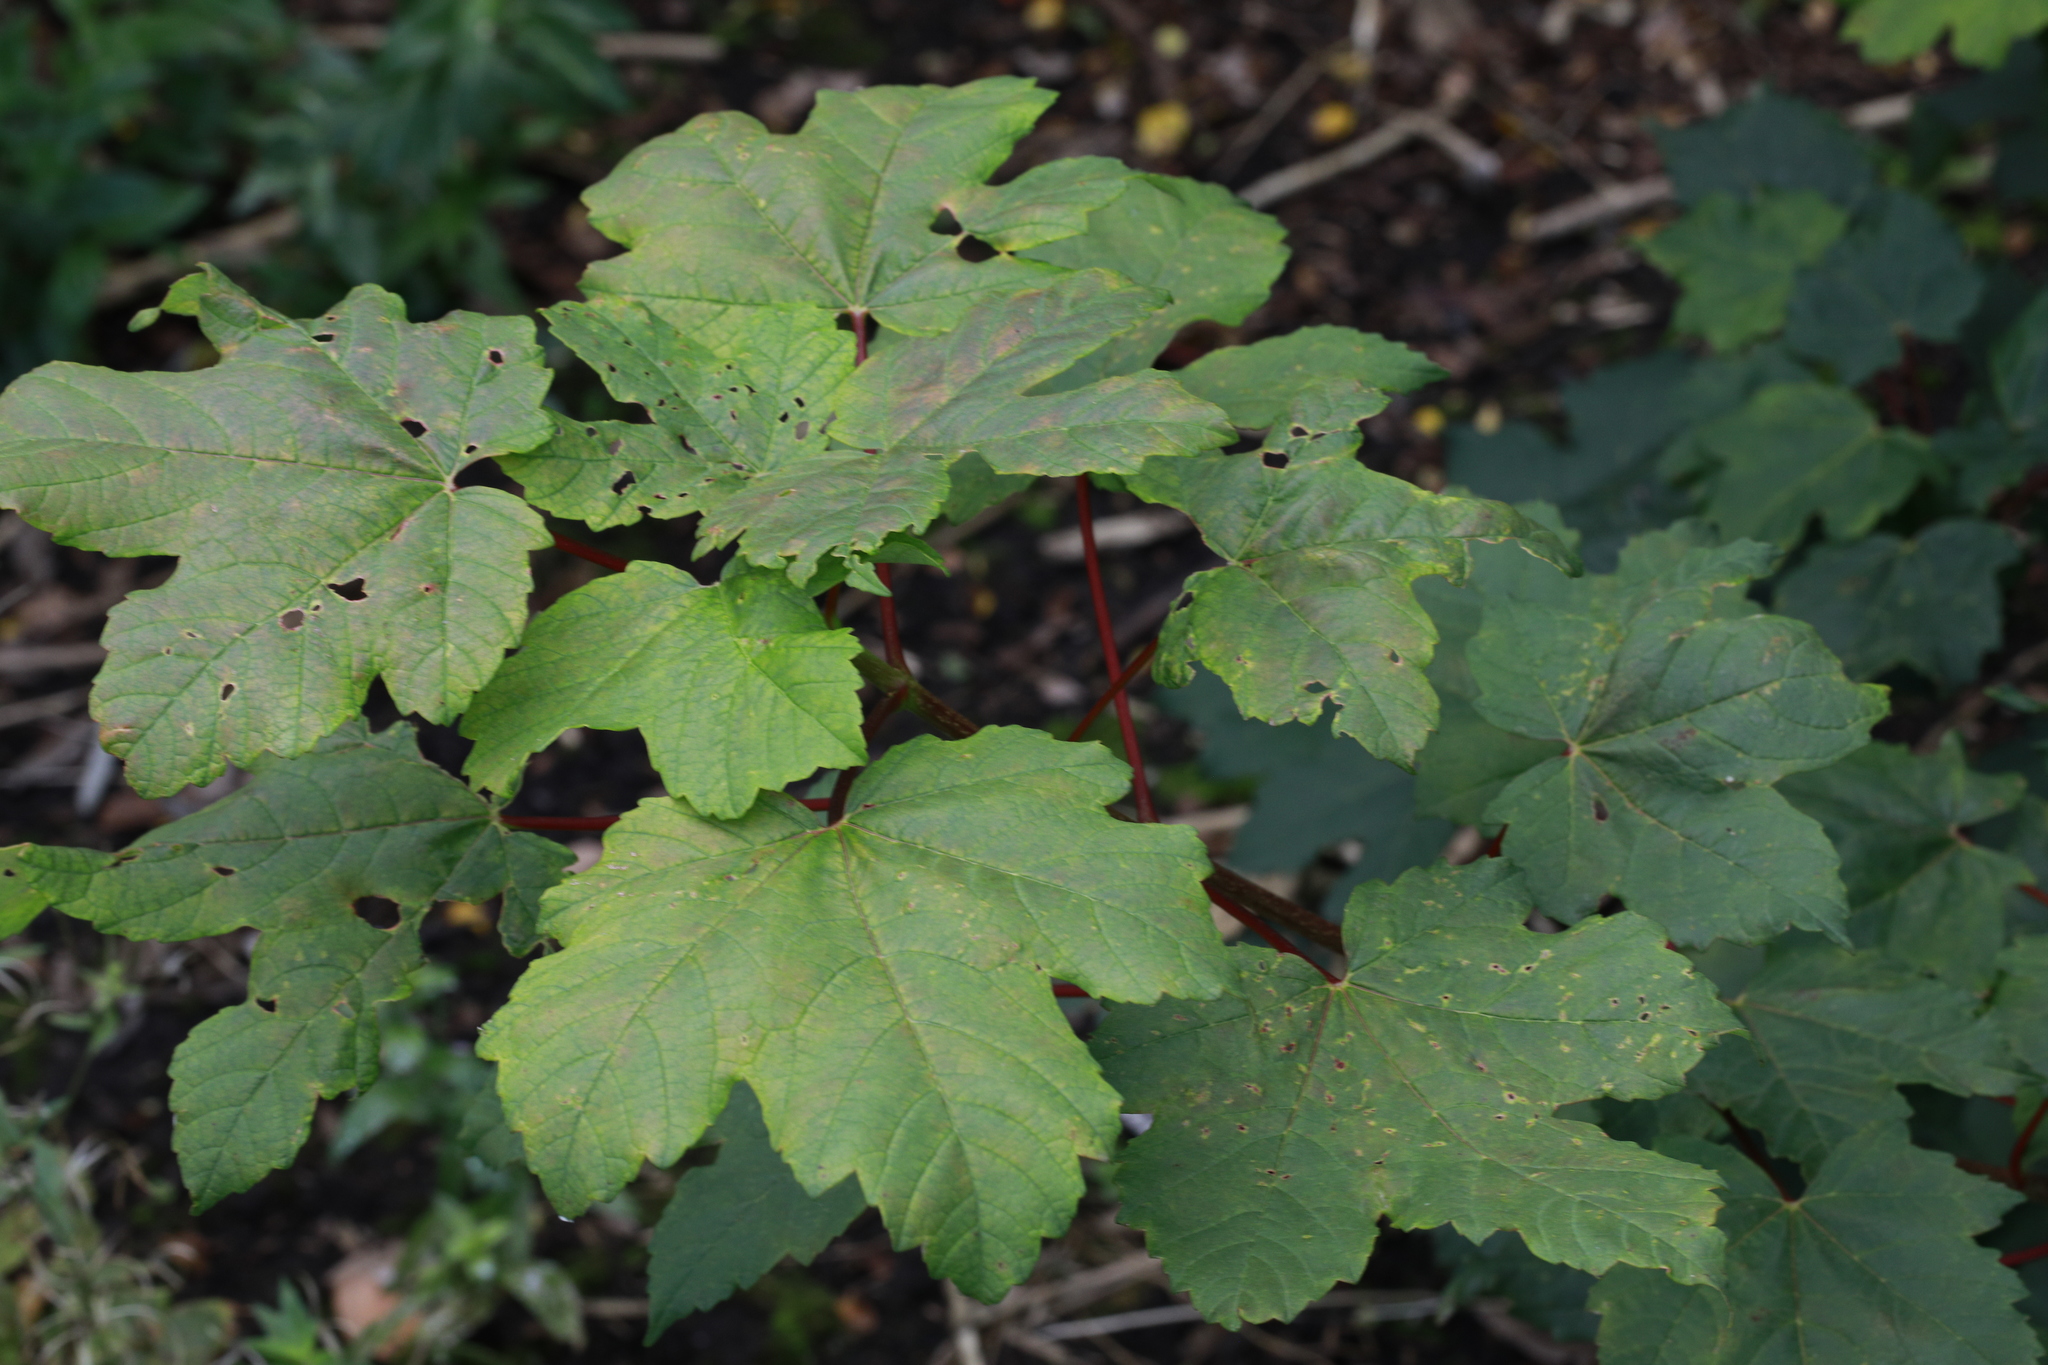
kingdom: Plantae
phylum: Tracheophyta
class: Magnoliopsida
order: Sapindales
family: Sapindaceae
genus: Acer
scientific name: Acer pseudoplatanus
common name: Sycamore
